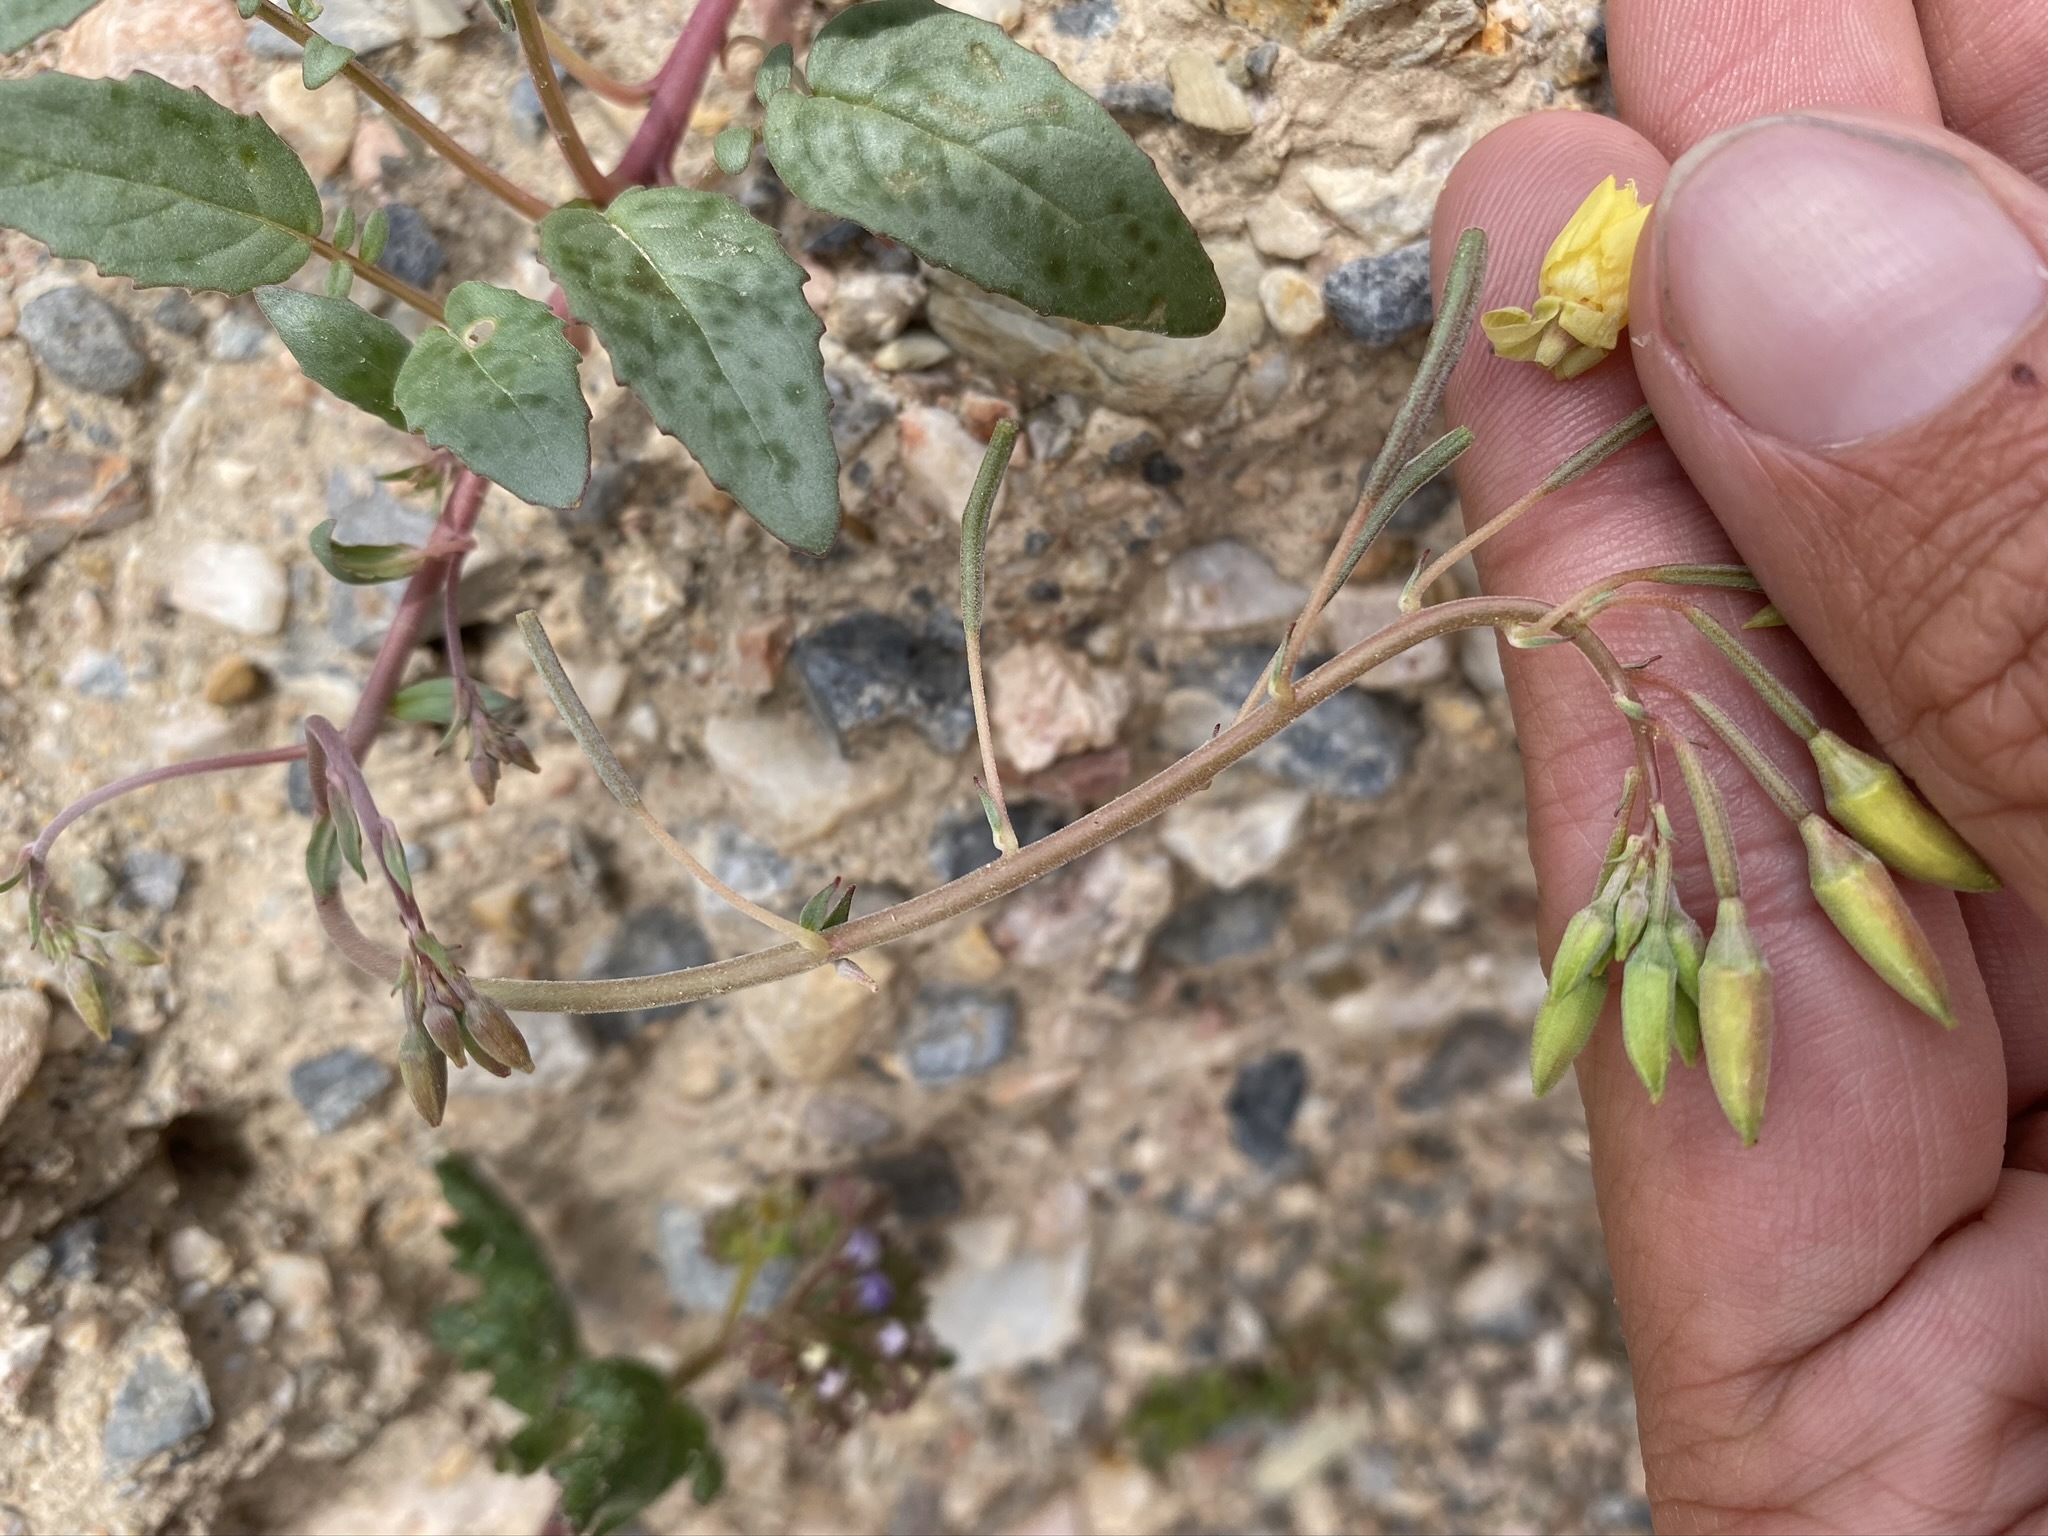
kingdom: Plantae
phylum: Tracheophyta
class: Magnoliopsida
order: Myrtales
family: Onagraceae
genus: Chylismia
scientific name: Chylismia claviformis
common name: Browneyes
